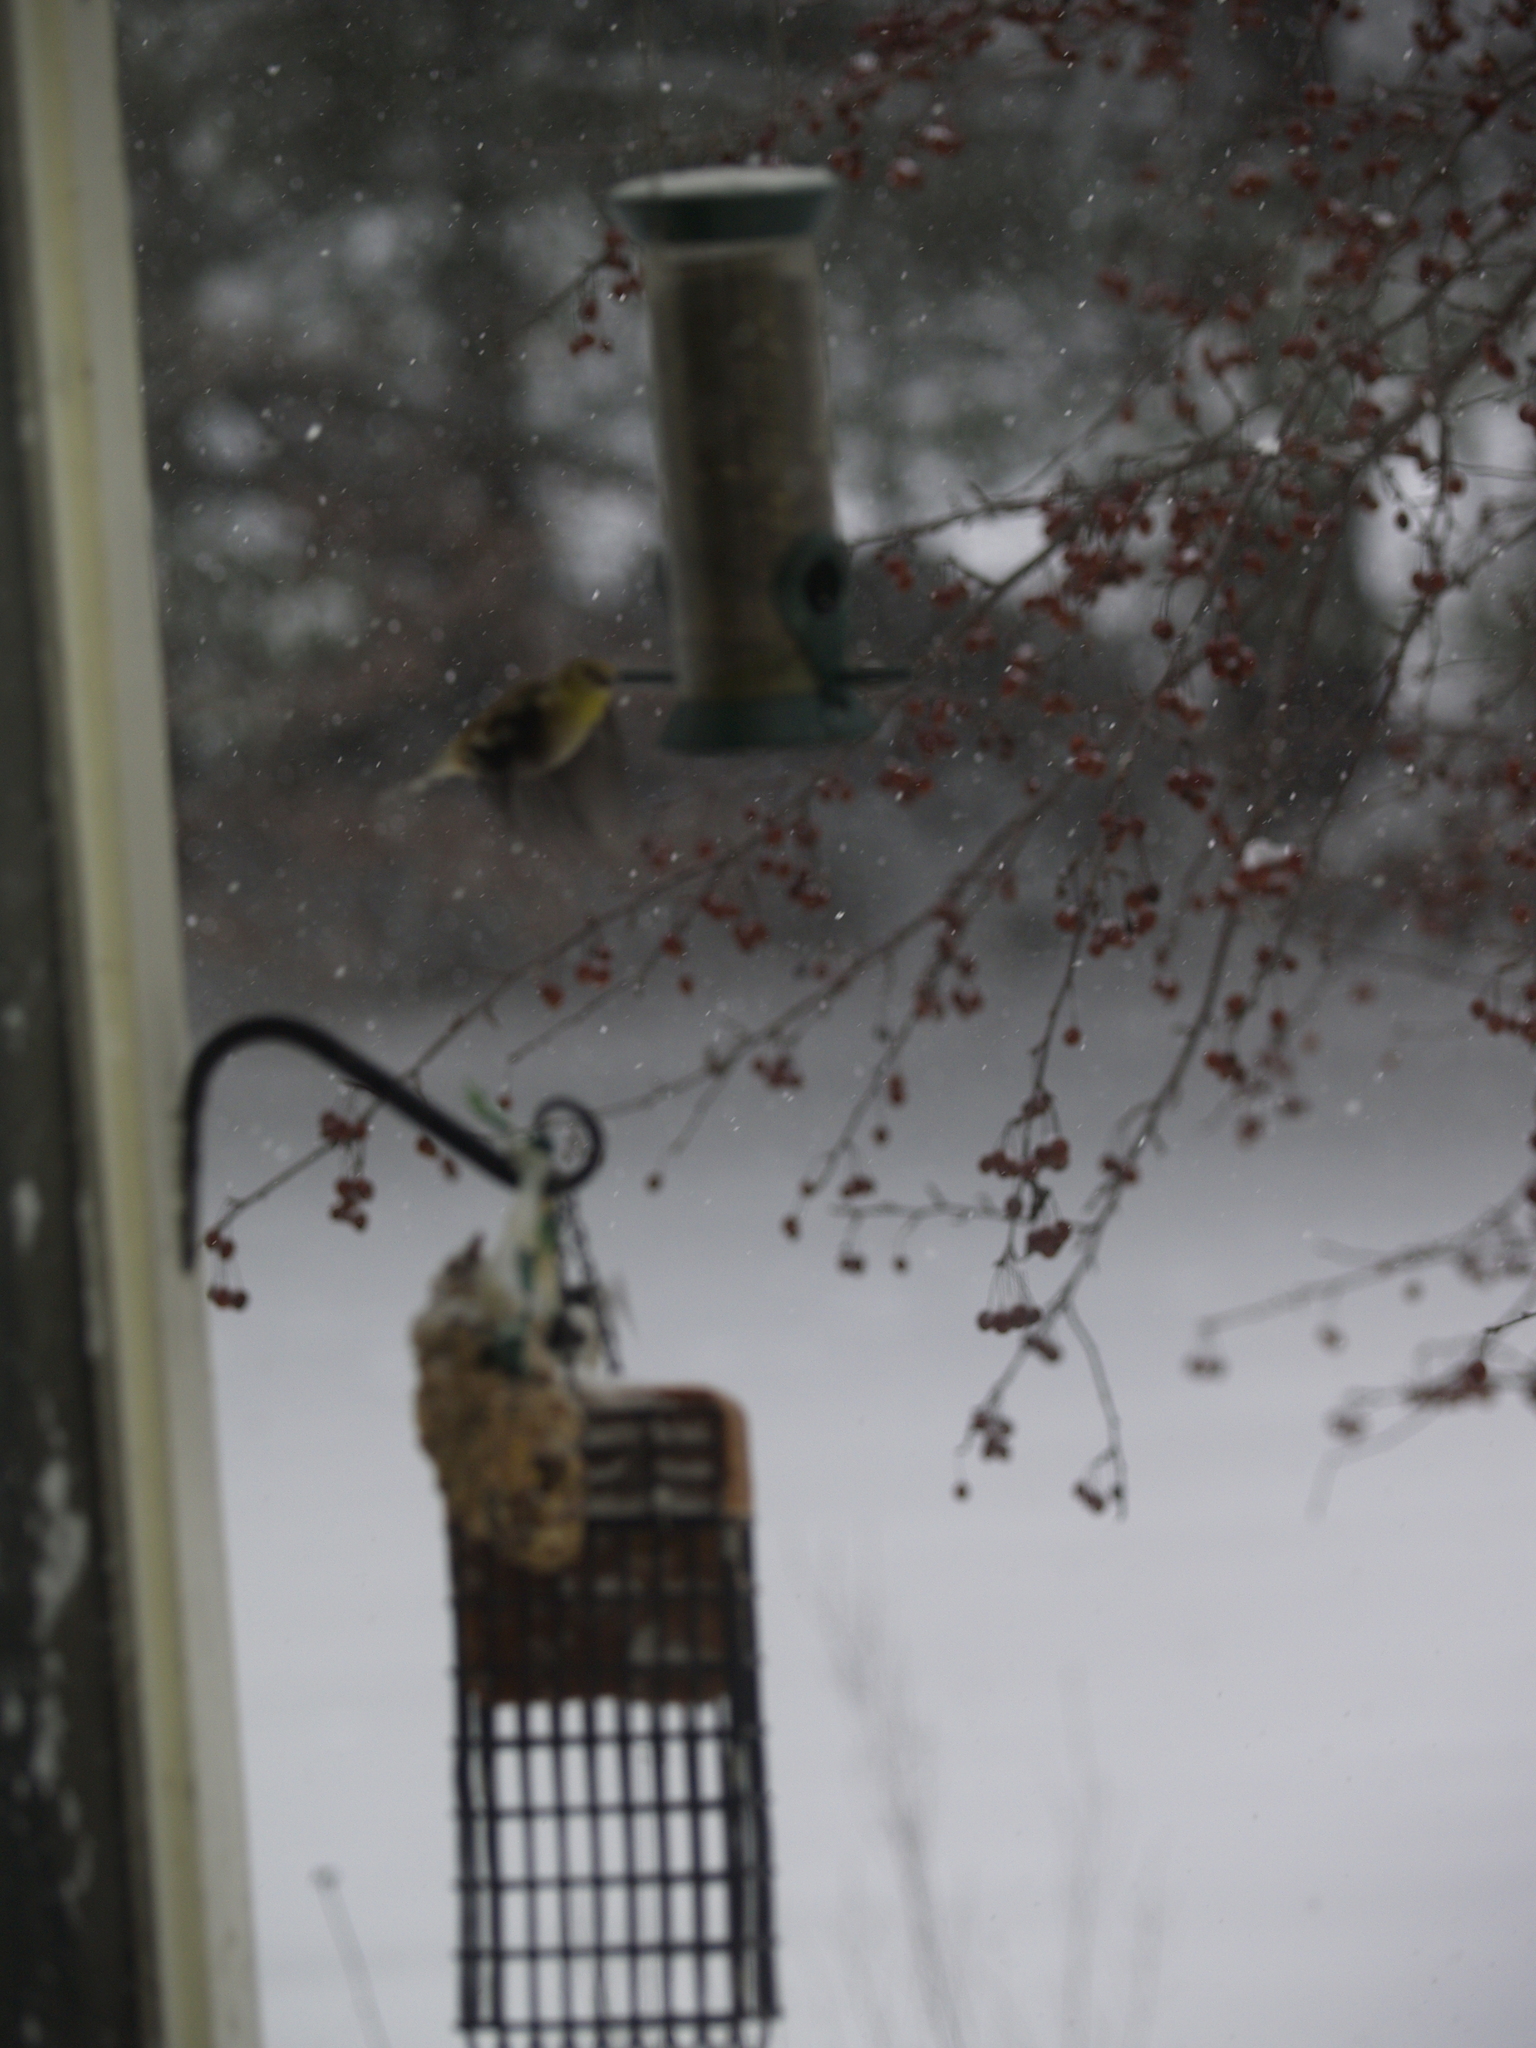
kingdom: Animalia
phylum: Chordata
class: Aves
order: Passeriformes
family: Fringillidae
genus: Spinus
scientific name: Spinus tristis
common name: American goldfinch
